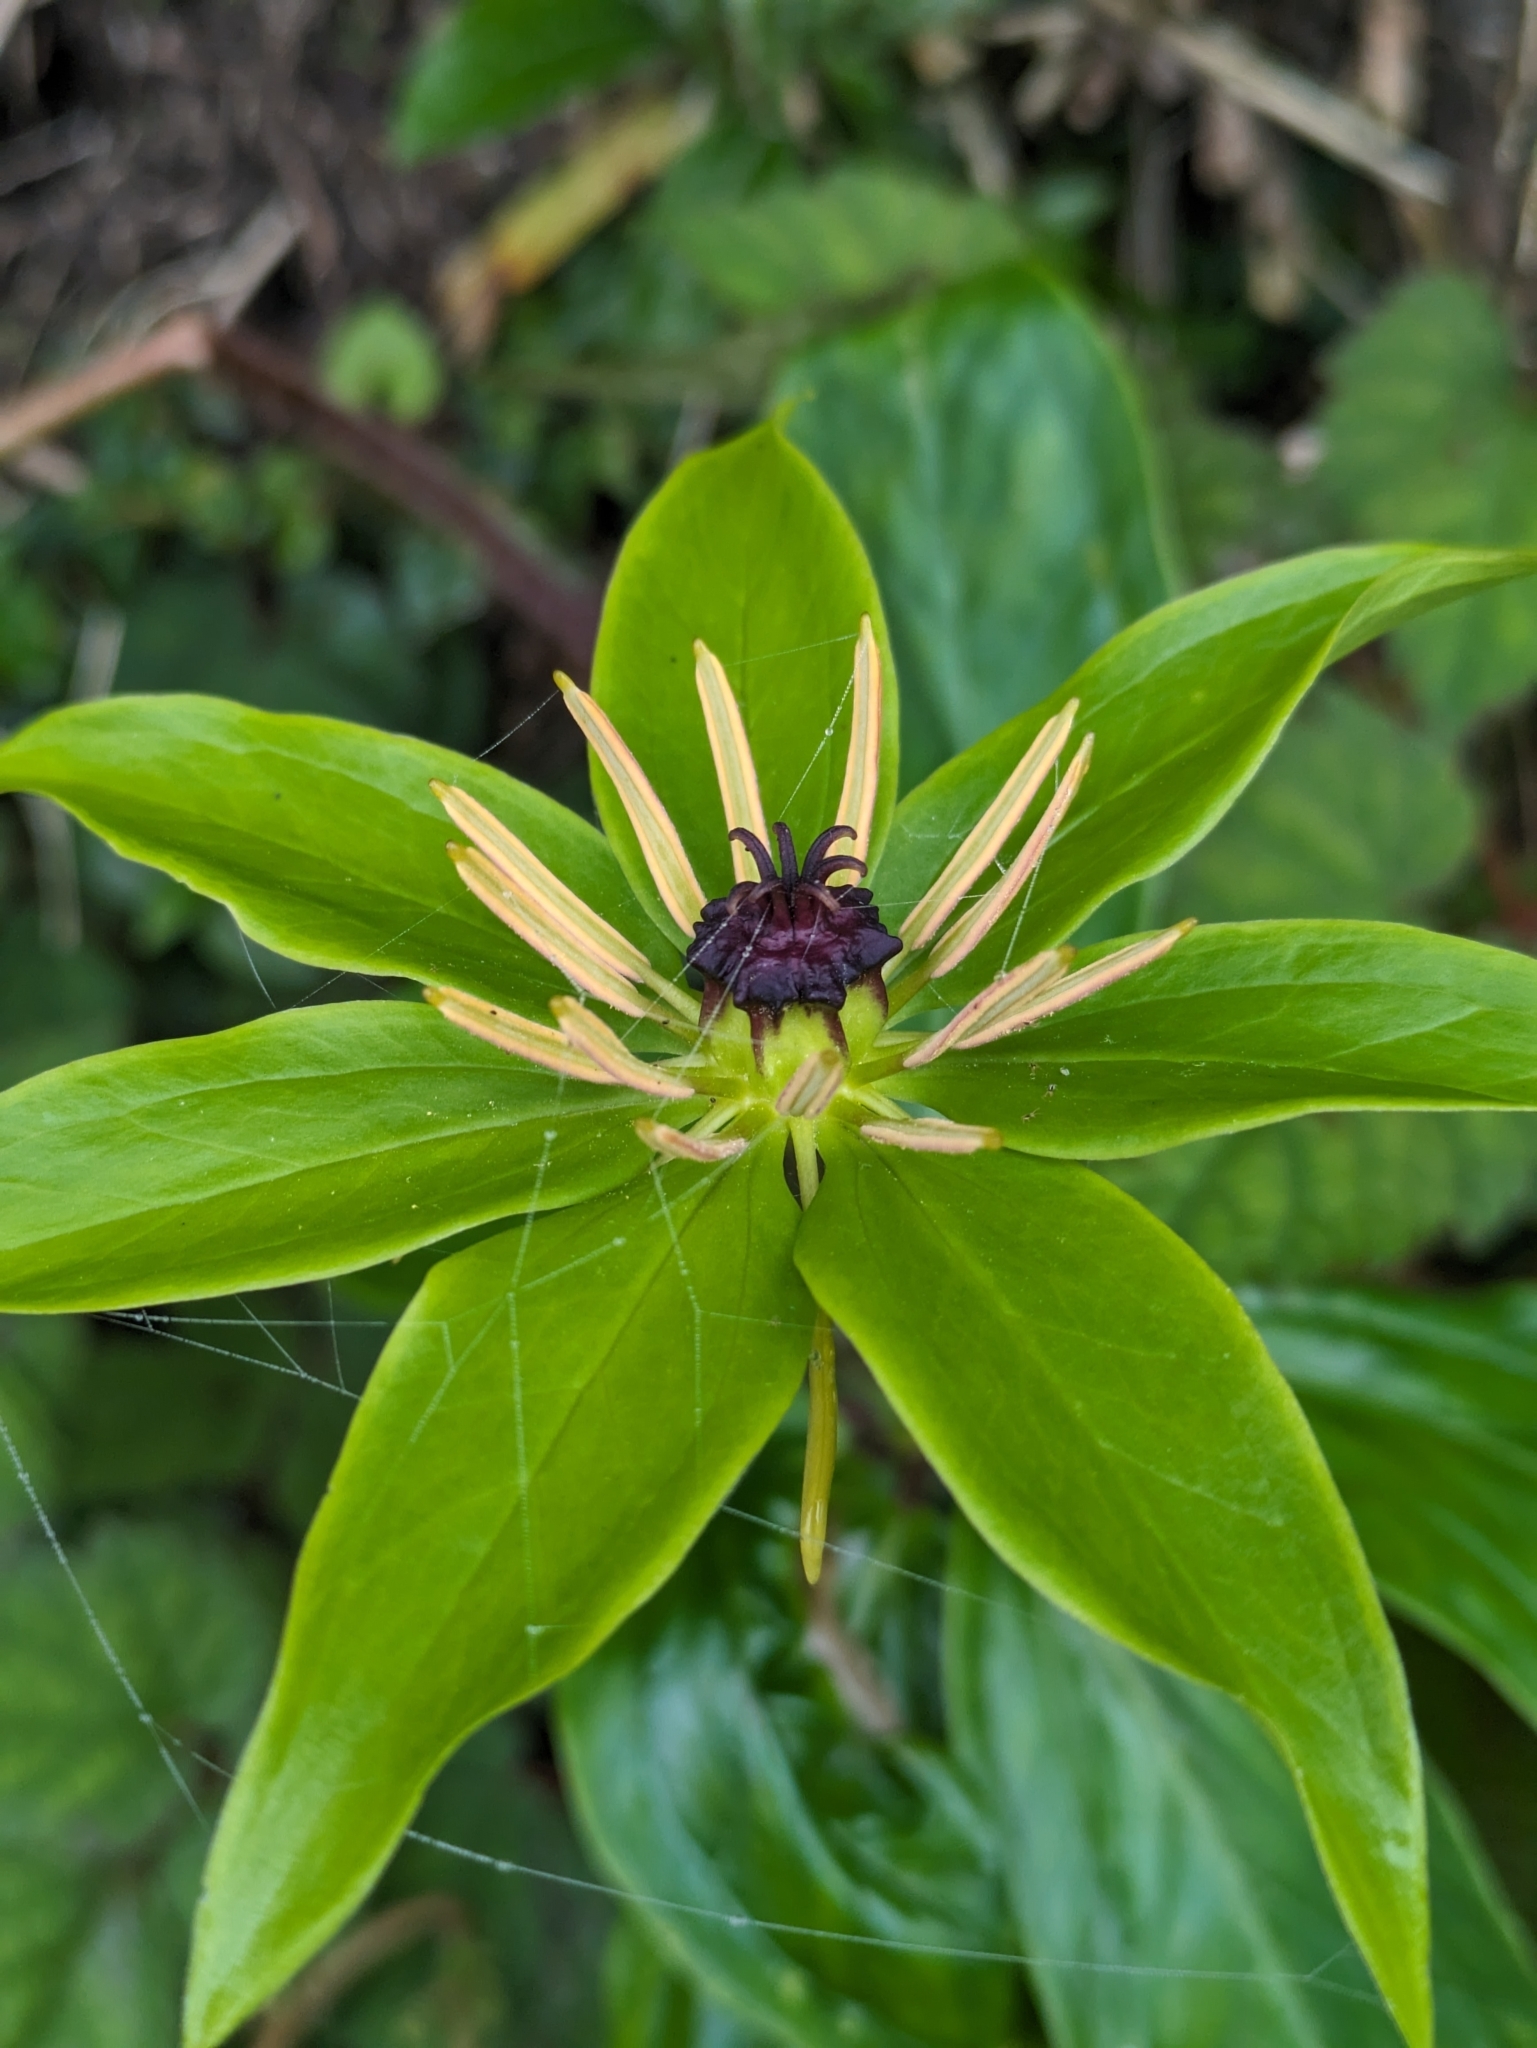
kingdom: Plantae
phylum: Tracheophyta
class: Liliopsida
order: Liliales
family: Melanthiaceae
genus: Paris
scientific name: Paris polyphylla
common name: Love apple
